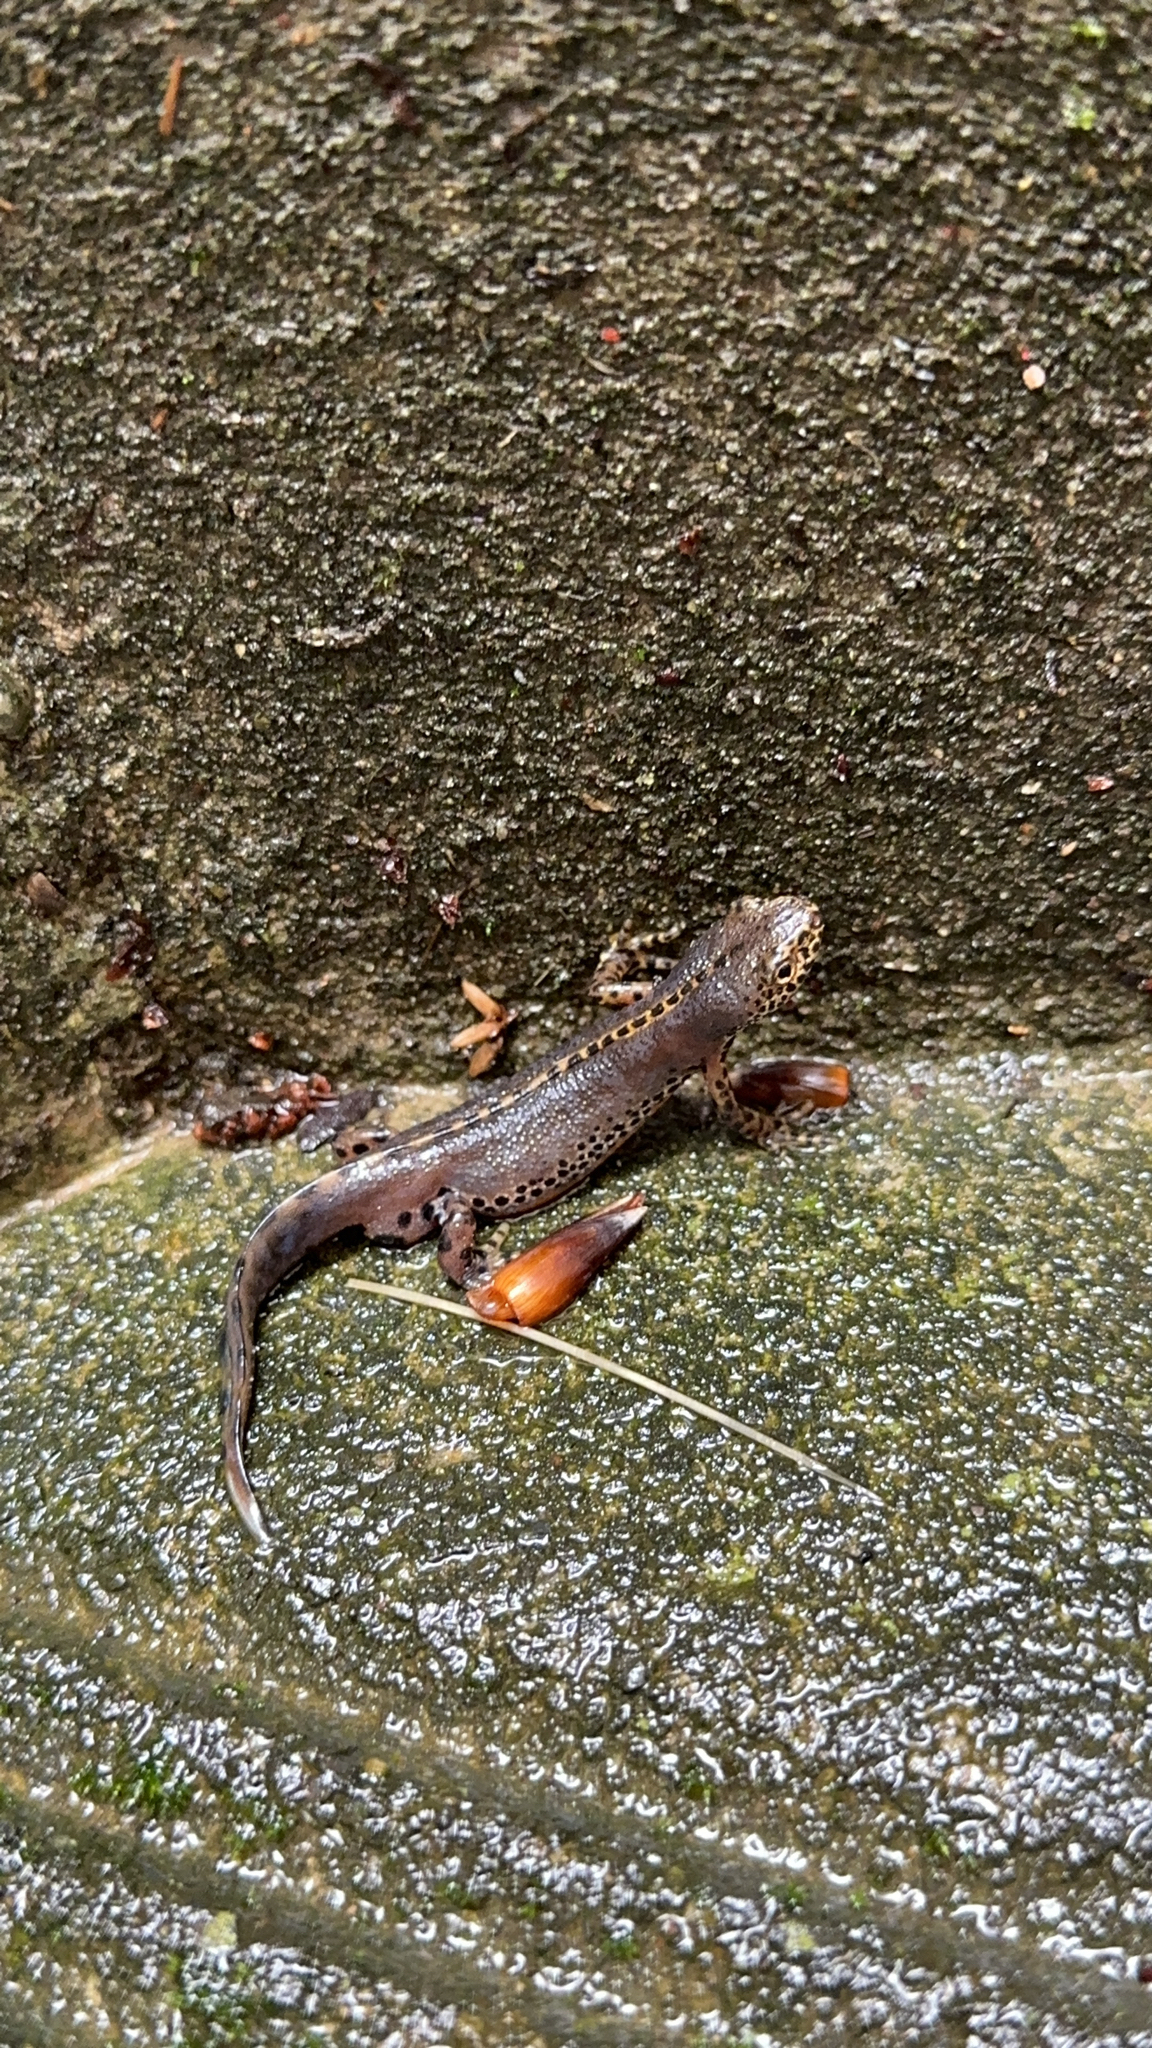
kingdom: Animalia
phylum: Chordata
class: Amphibia
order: Caudata
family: Salamandridae
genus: Ichthyosaura
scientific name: Ichthyosaura alpestris
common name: Alpine newt
